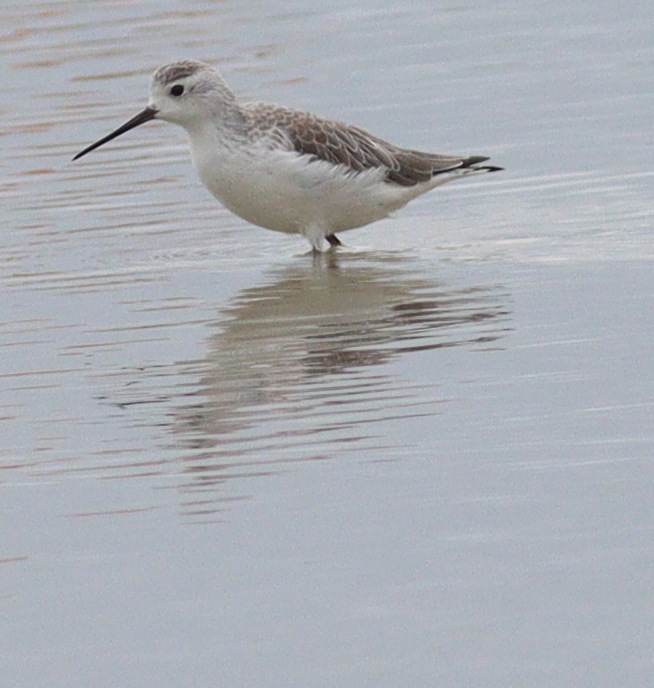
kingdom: Animalia
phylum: Chordata
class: Aves
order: Charadriiformes
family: Scolopacidae
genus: Tringa
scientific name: Tringa stagnatilis
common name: Marsh sandpiper
